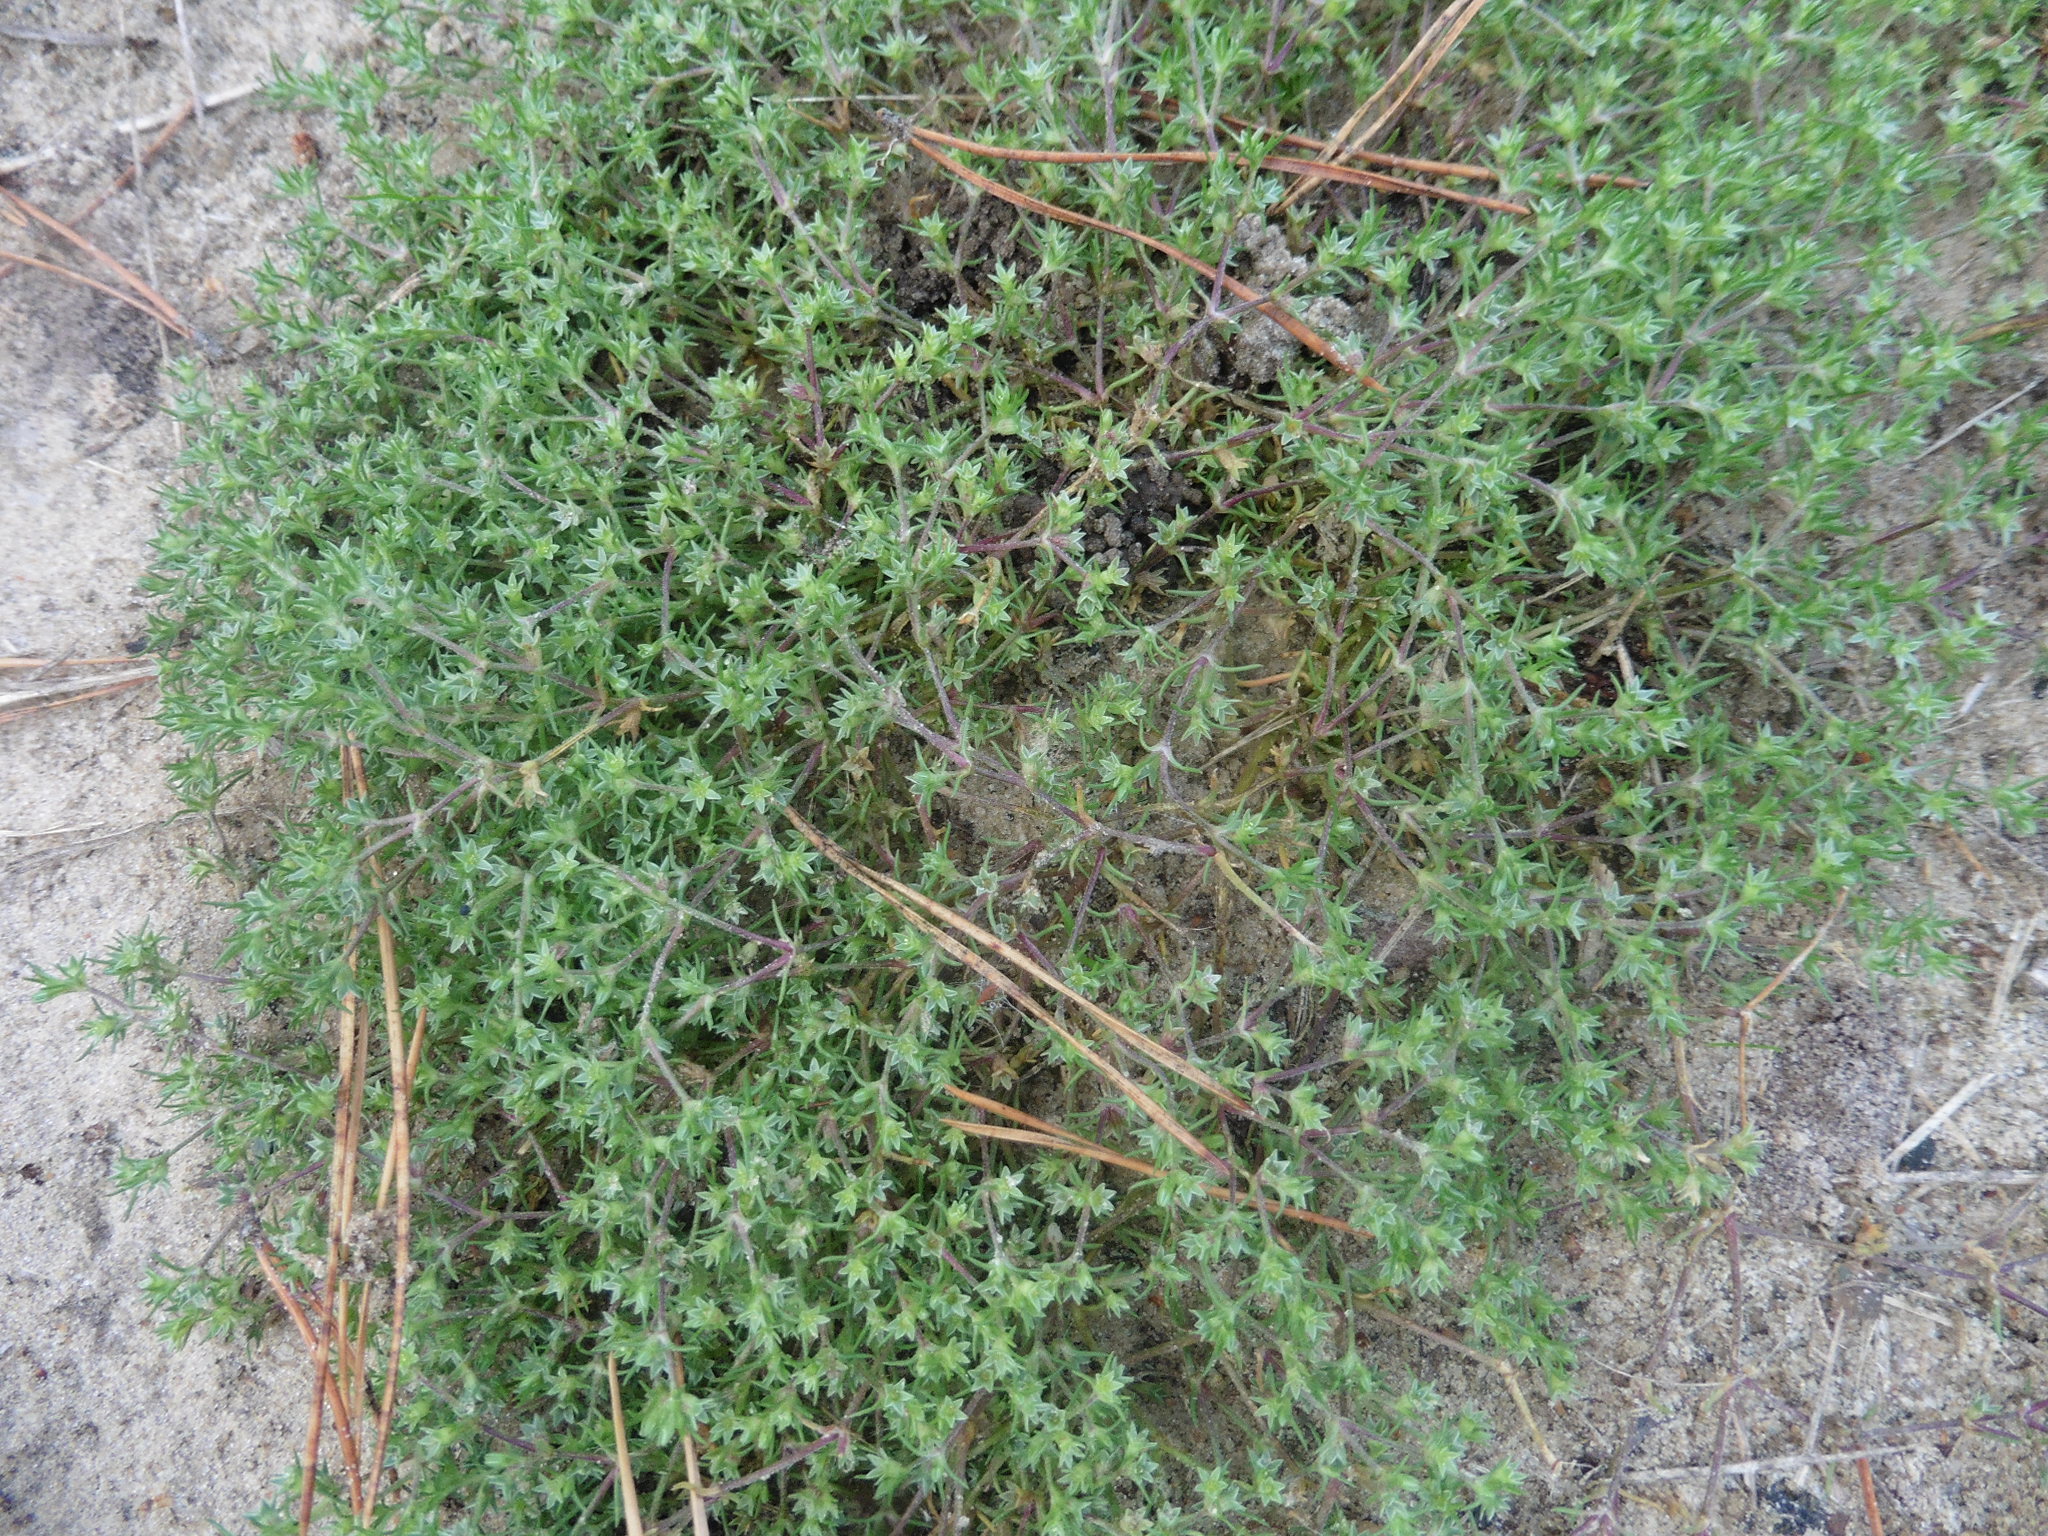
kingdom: Plantae
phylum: Tracheophyta
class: Magnoliopsida
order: Caryophyllales
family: Caryophyllaceae
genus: Scleranthus
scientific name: Scleranthus annuus
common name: Annual knawel
